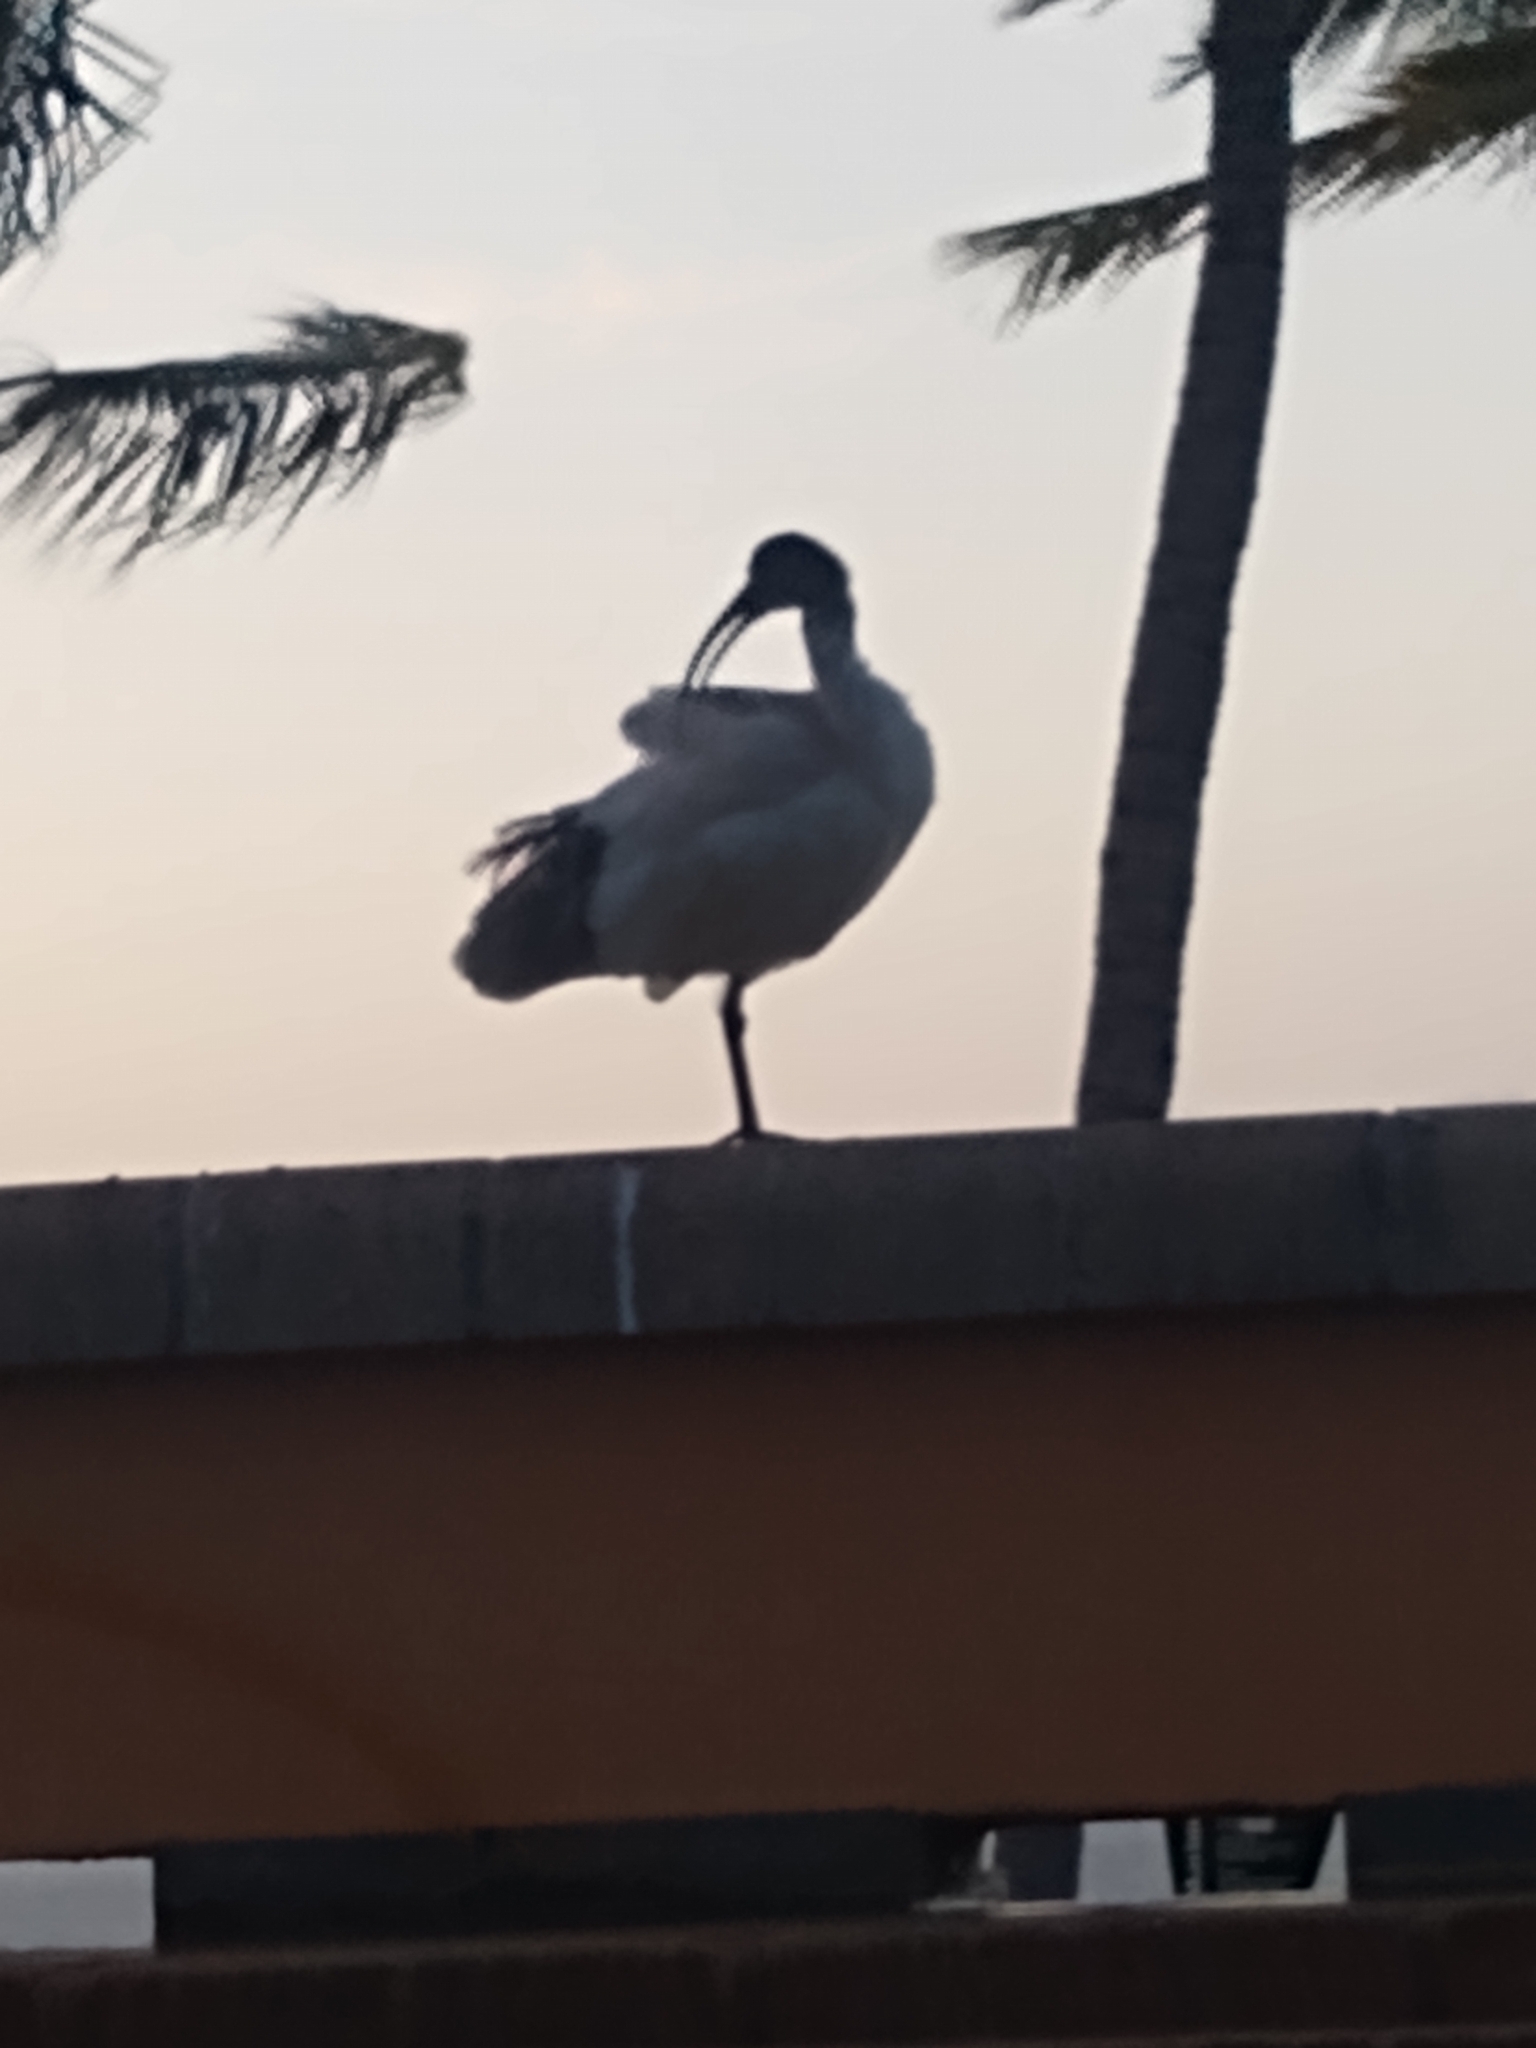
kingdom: Animalia
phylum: Chordata
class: Aves
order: Pelecaniformes
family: Threskiornithidae
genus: Threskiornis
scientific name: Threskiornis molucca
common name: Australian white ibis
